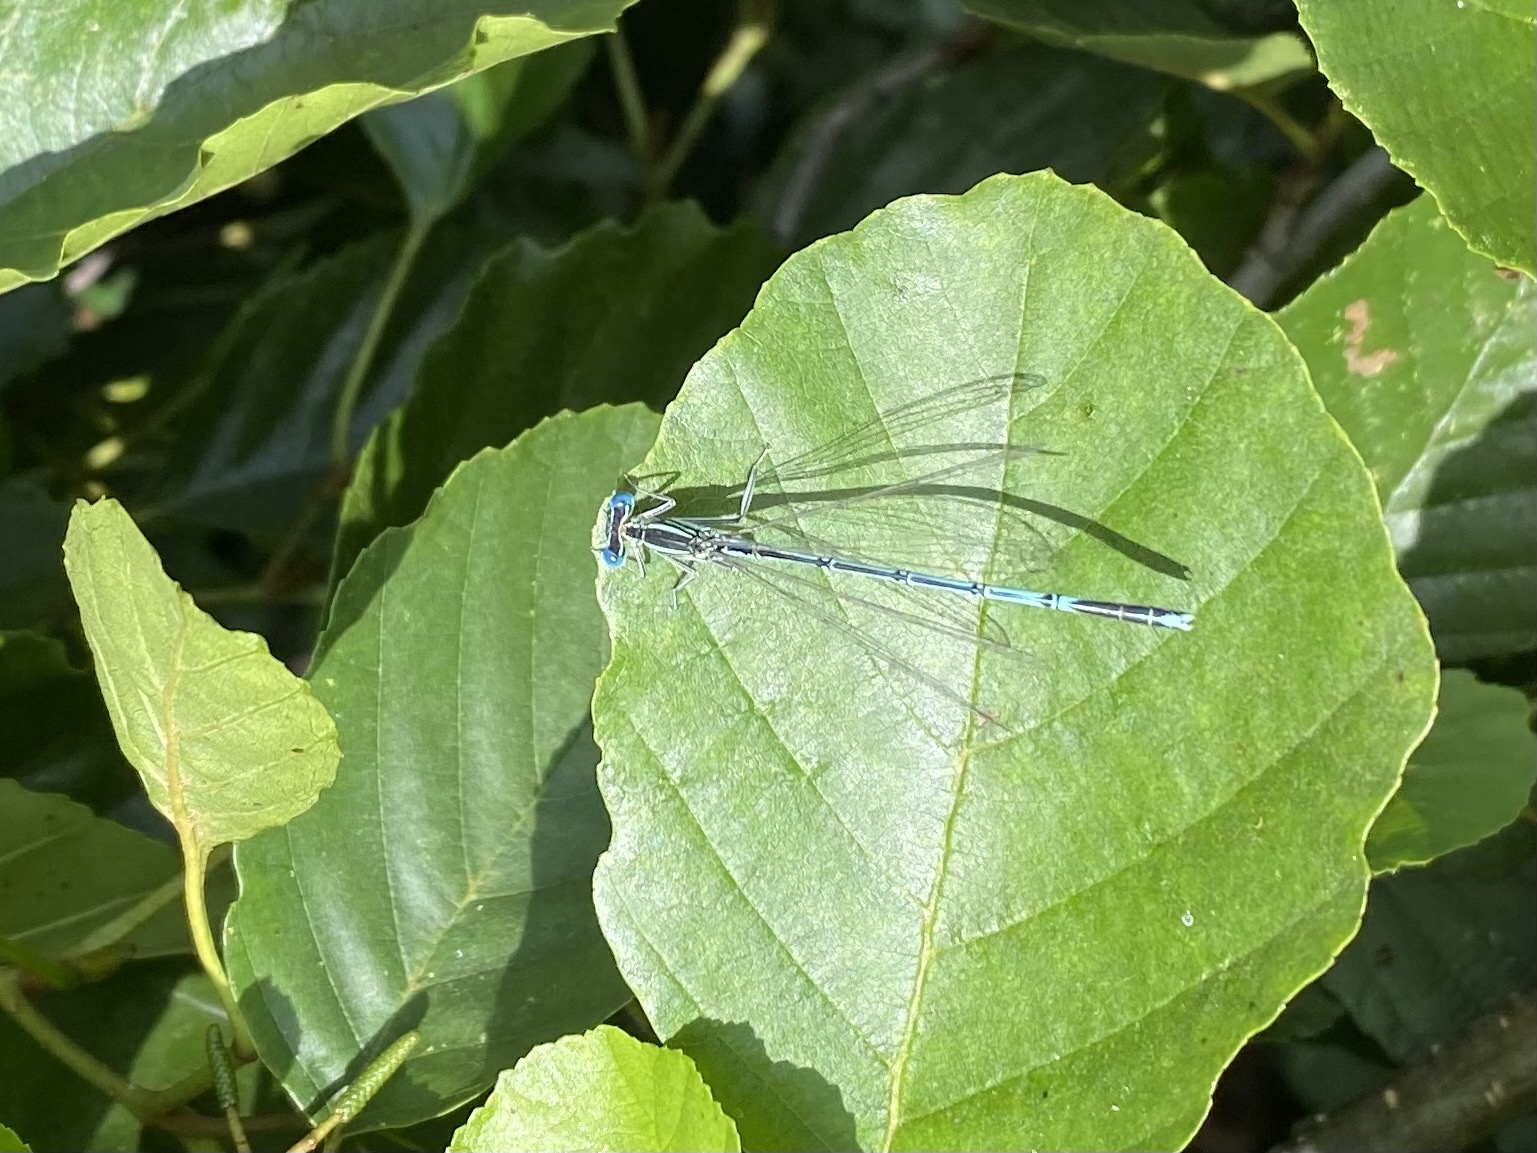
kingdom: Animalia
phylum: Arthropoda
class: Insecta
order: Odonata
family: Platycnemididae
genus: Platycnemis
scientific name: Platycnemis pennipes
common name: White-legged damselfly
